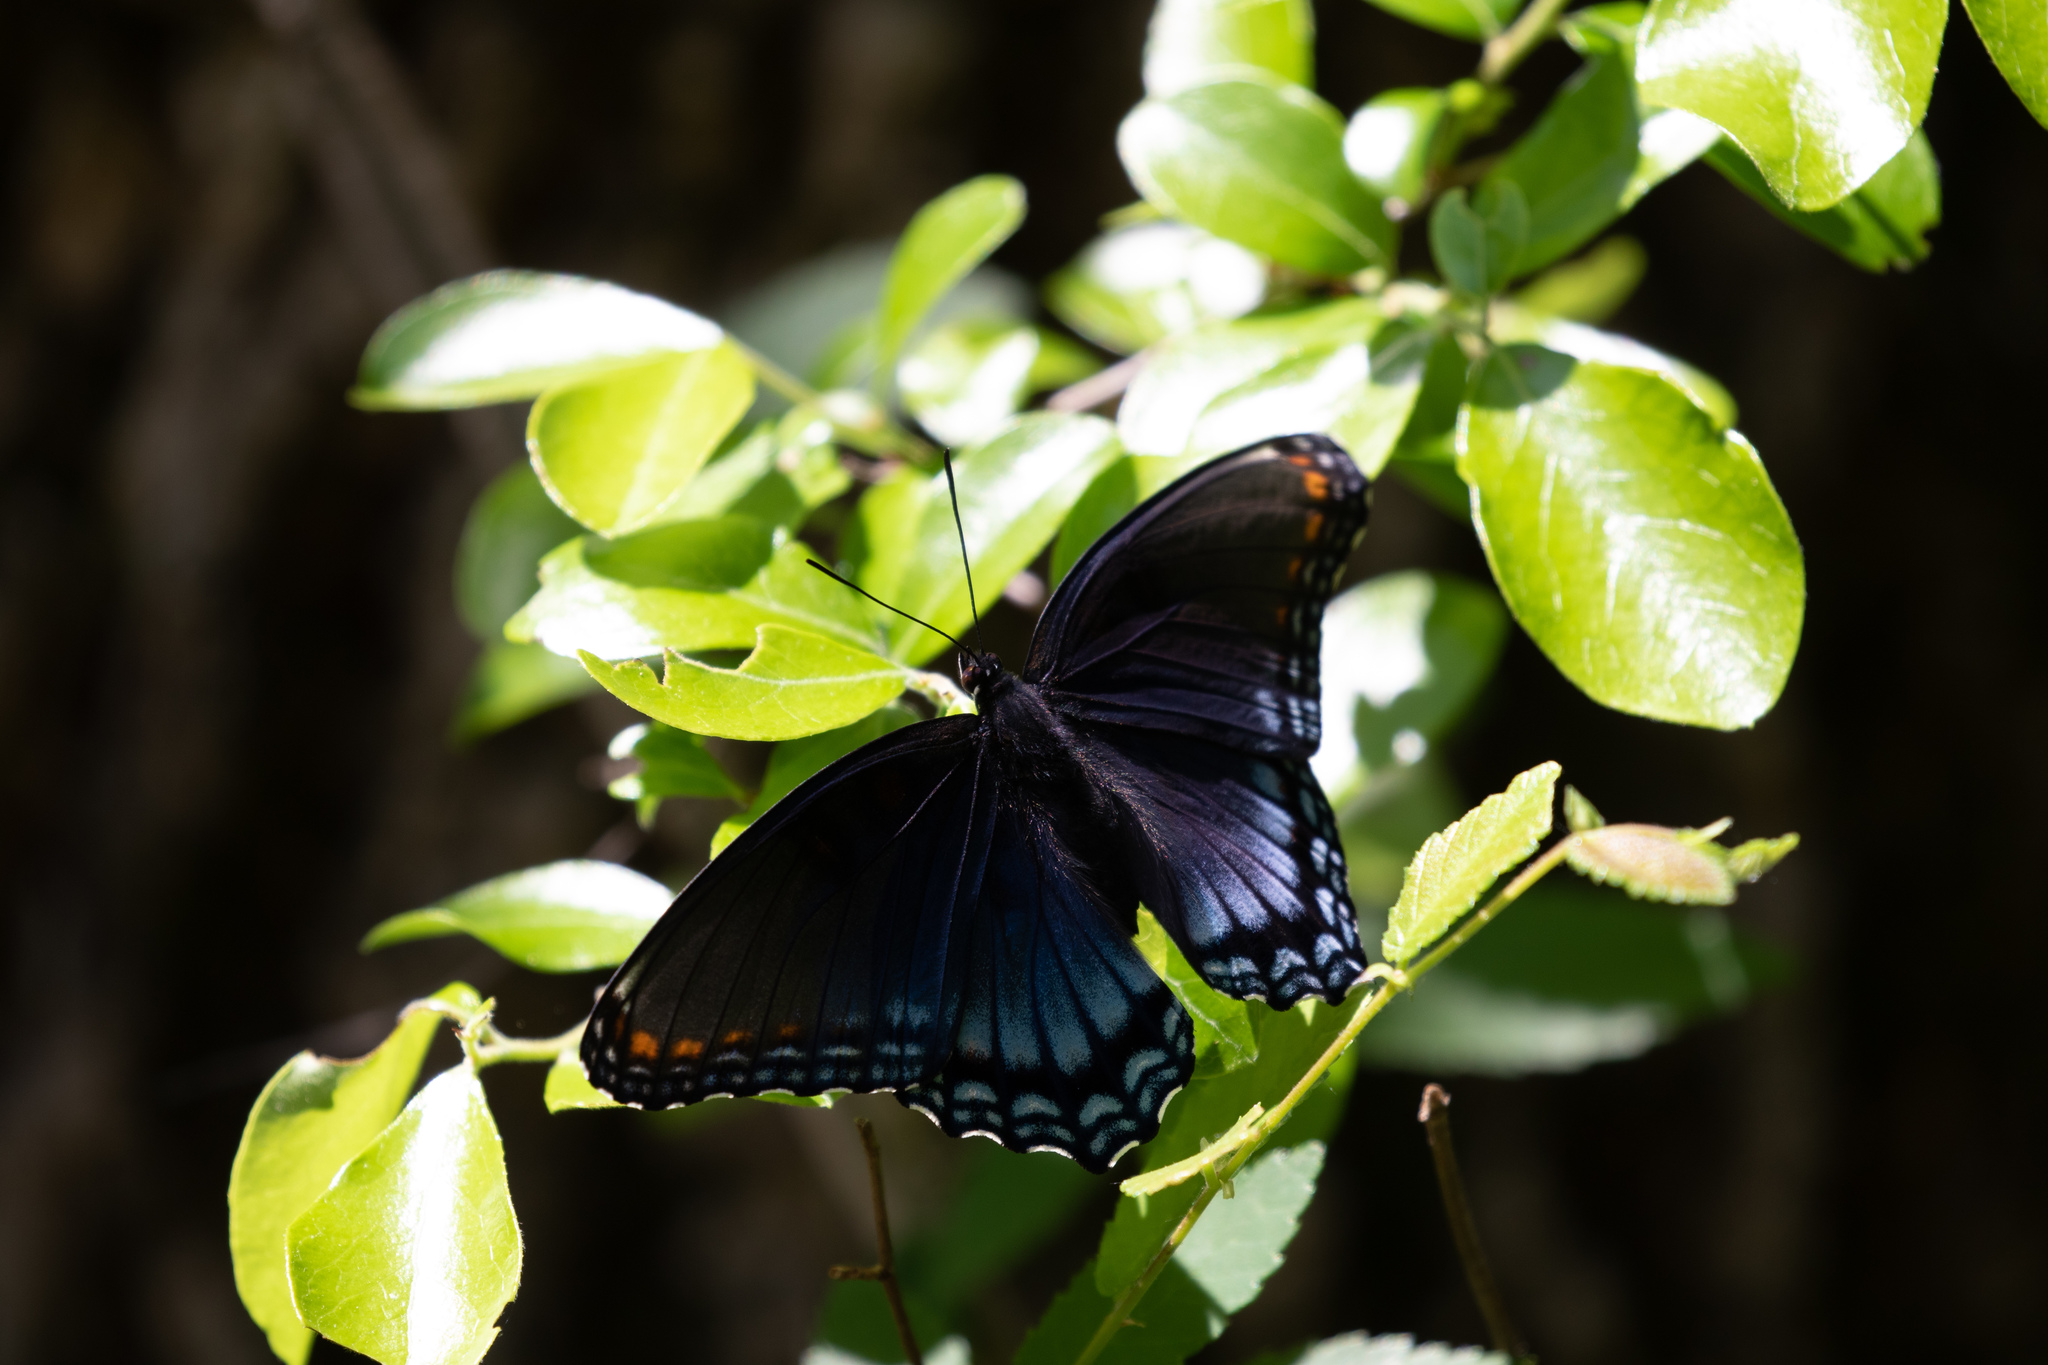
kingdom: Animalia
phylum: Arthropoda
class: Insecta
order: Lepidoptera
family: Nymphalidae
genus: Limenitis
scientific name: Limenitis astyanax
